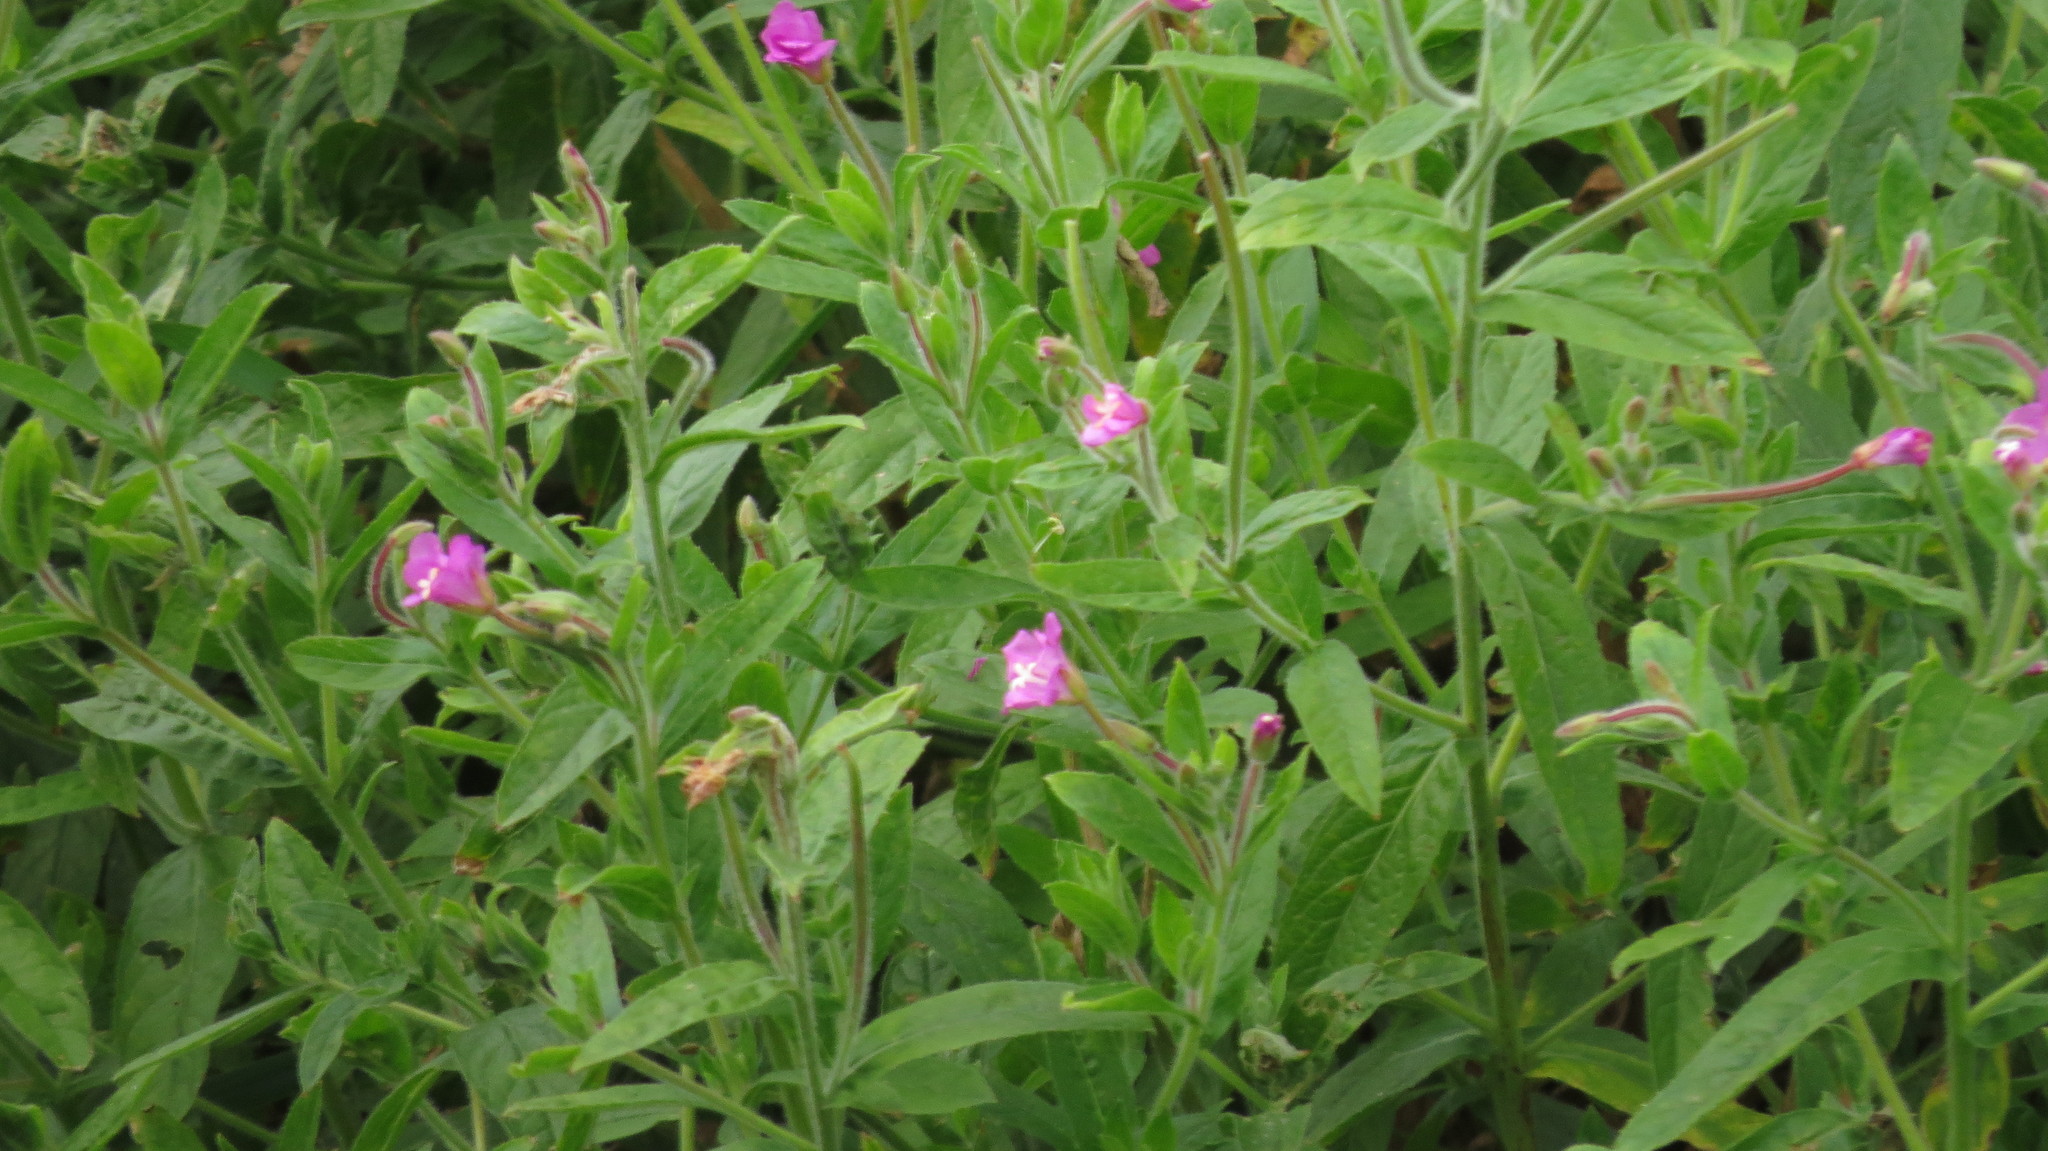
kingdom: Plantae
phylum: Tracheophyta
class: Magnoliopsida
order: Myrtales
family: Onagraceae
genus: Epilobium
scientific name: Epilobium hirsutum
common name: Great willowherb
